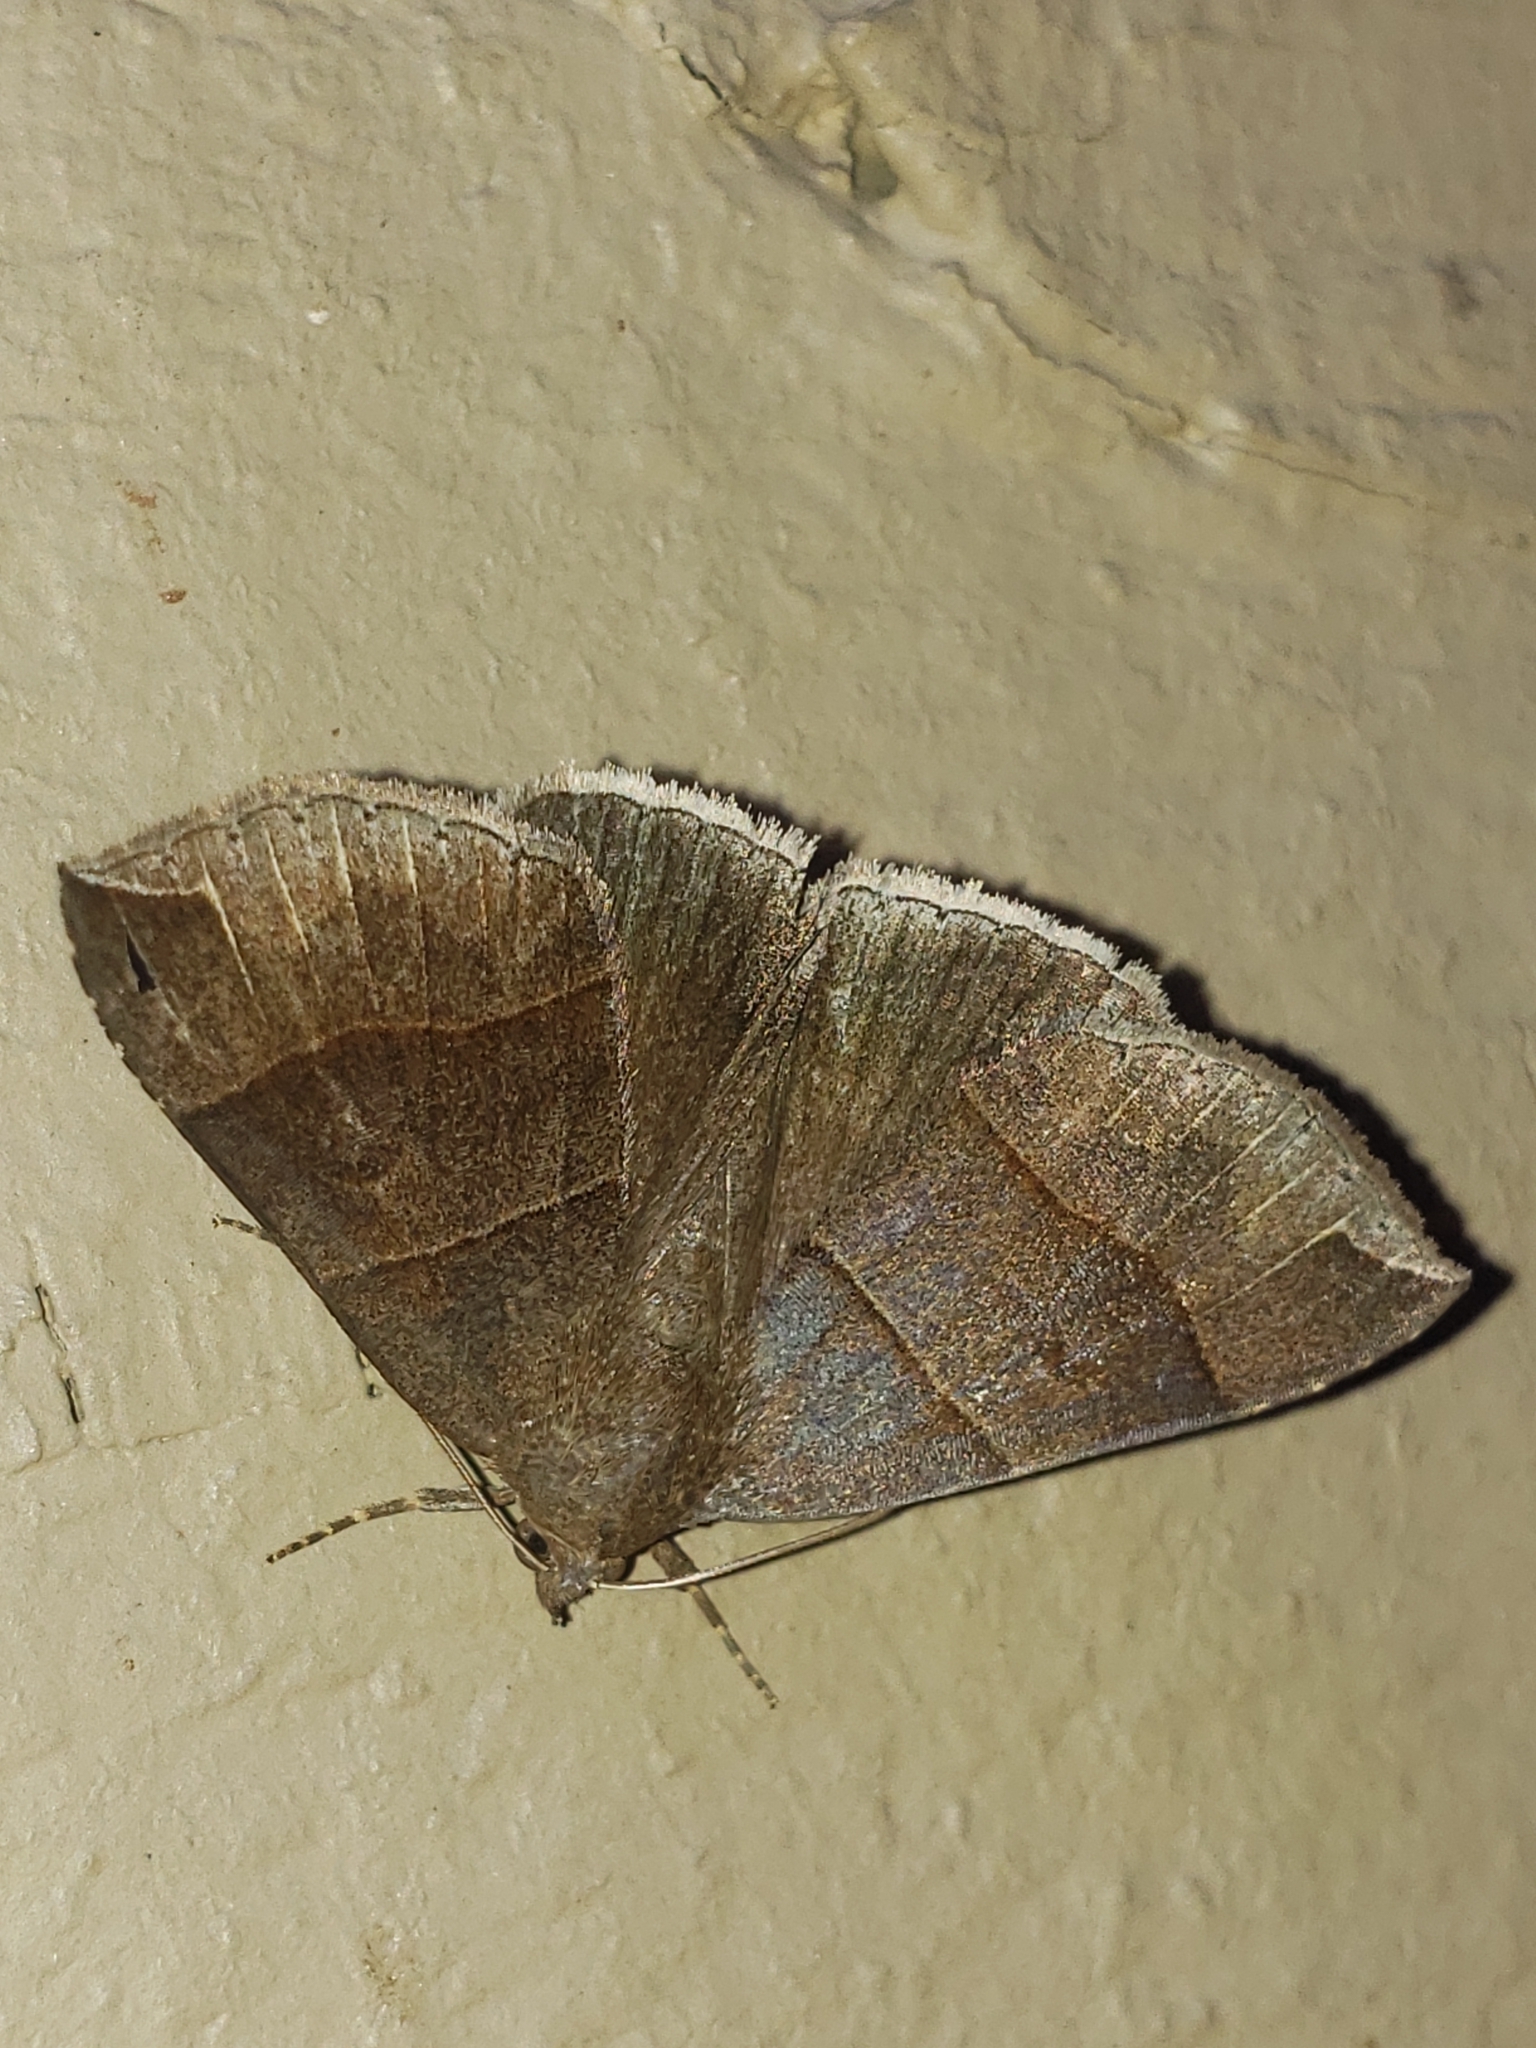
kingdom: Animalia
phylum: Arthropoda
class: Insecta
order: Lepidoptera
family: Erebidae
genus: Parallelia
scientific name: Parallelia bistriaris
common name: Maple looper moth
